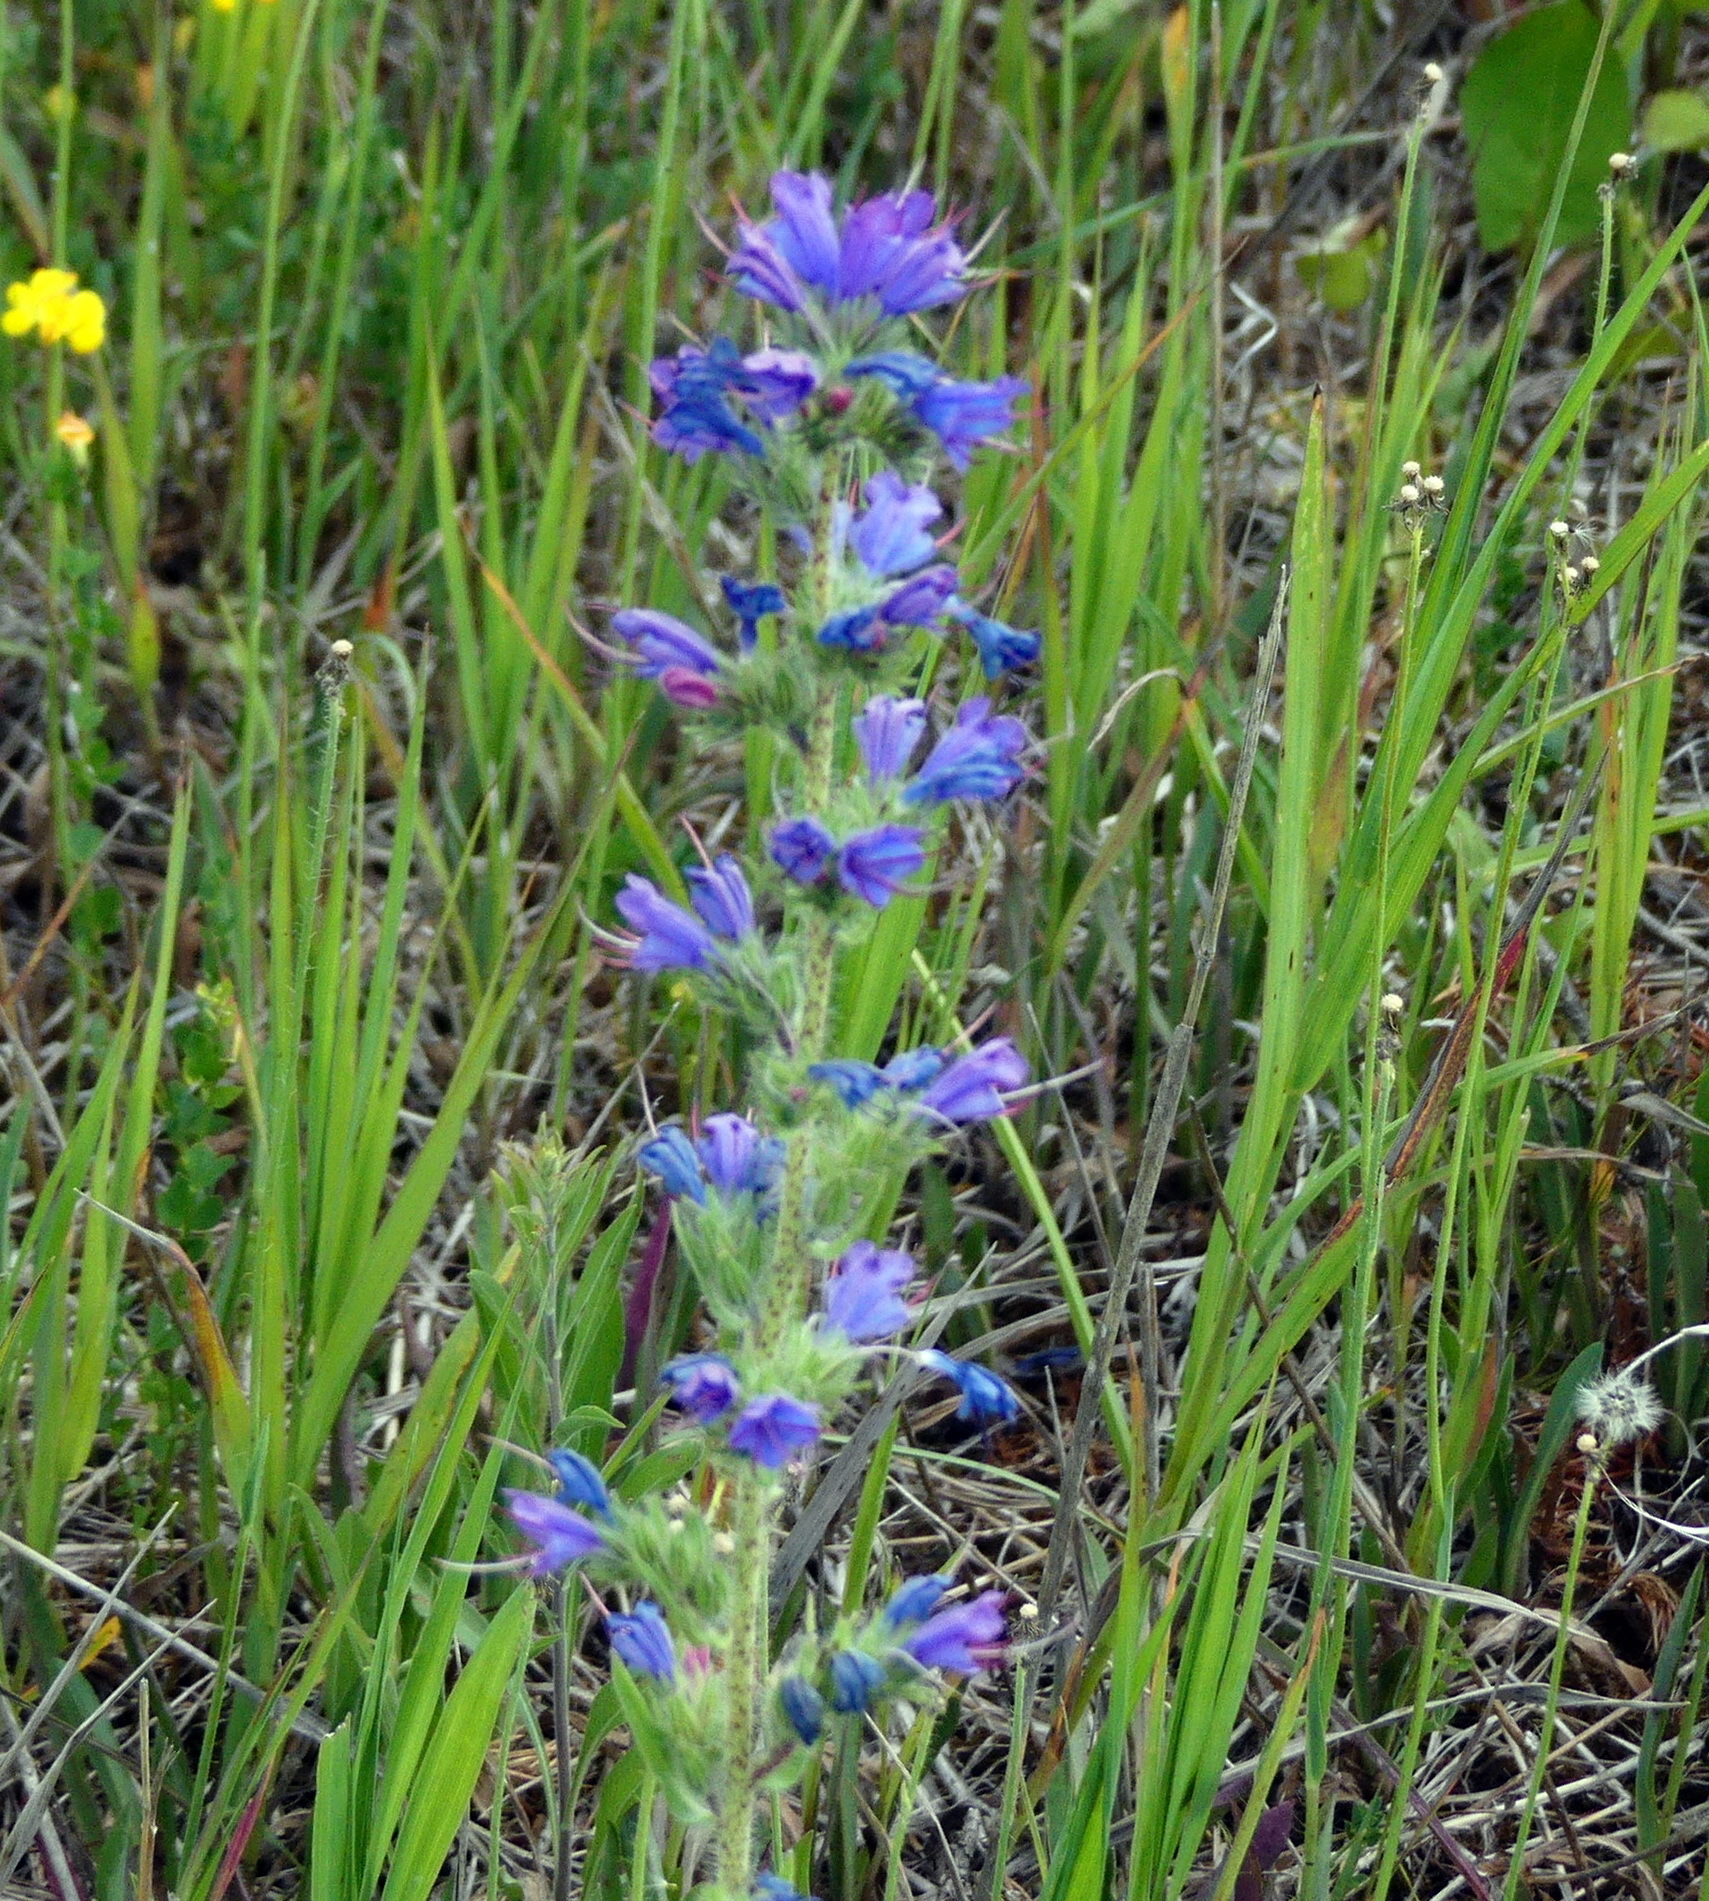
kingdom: Plantae
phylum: Tracheophyta
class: Magnoliopsida
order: Boraginales
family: Boraginaceae
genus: Echium
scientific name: Echium vulgare
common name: Common viper's bugloss
